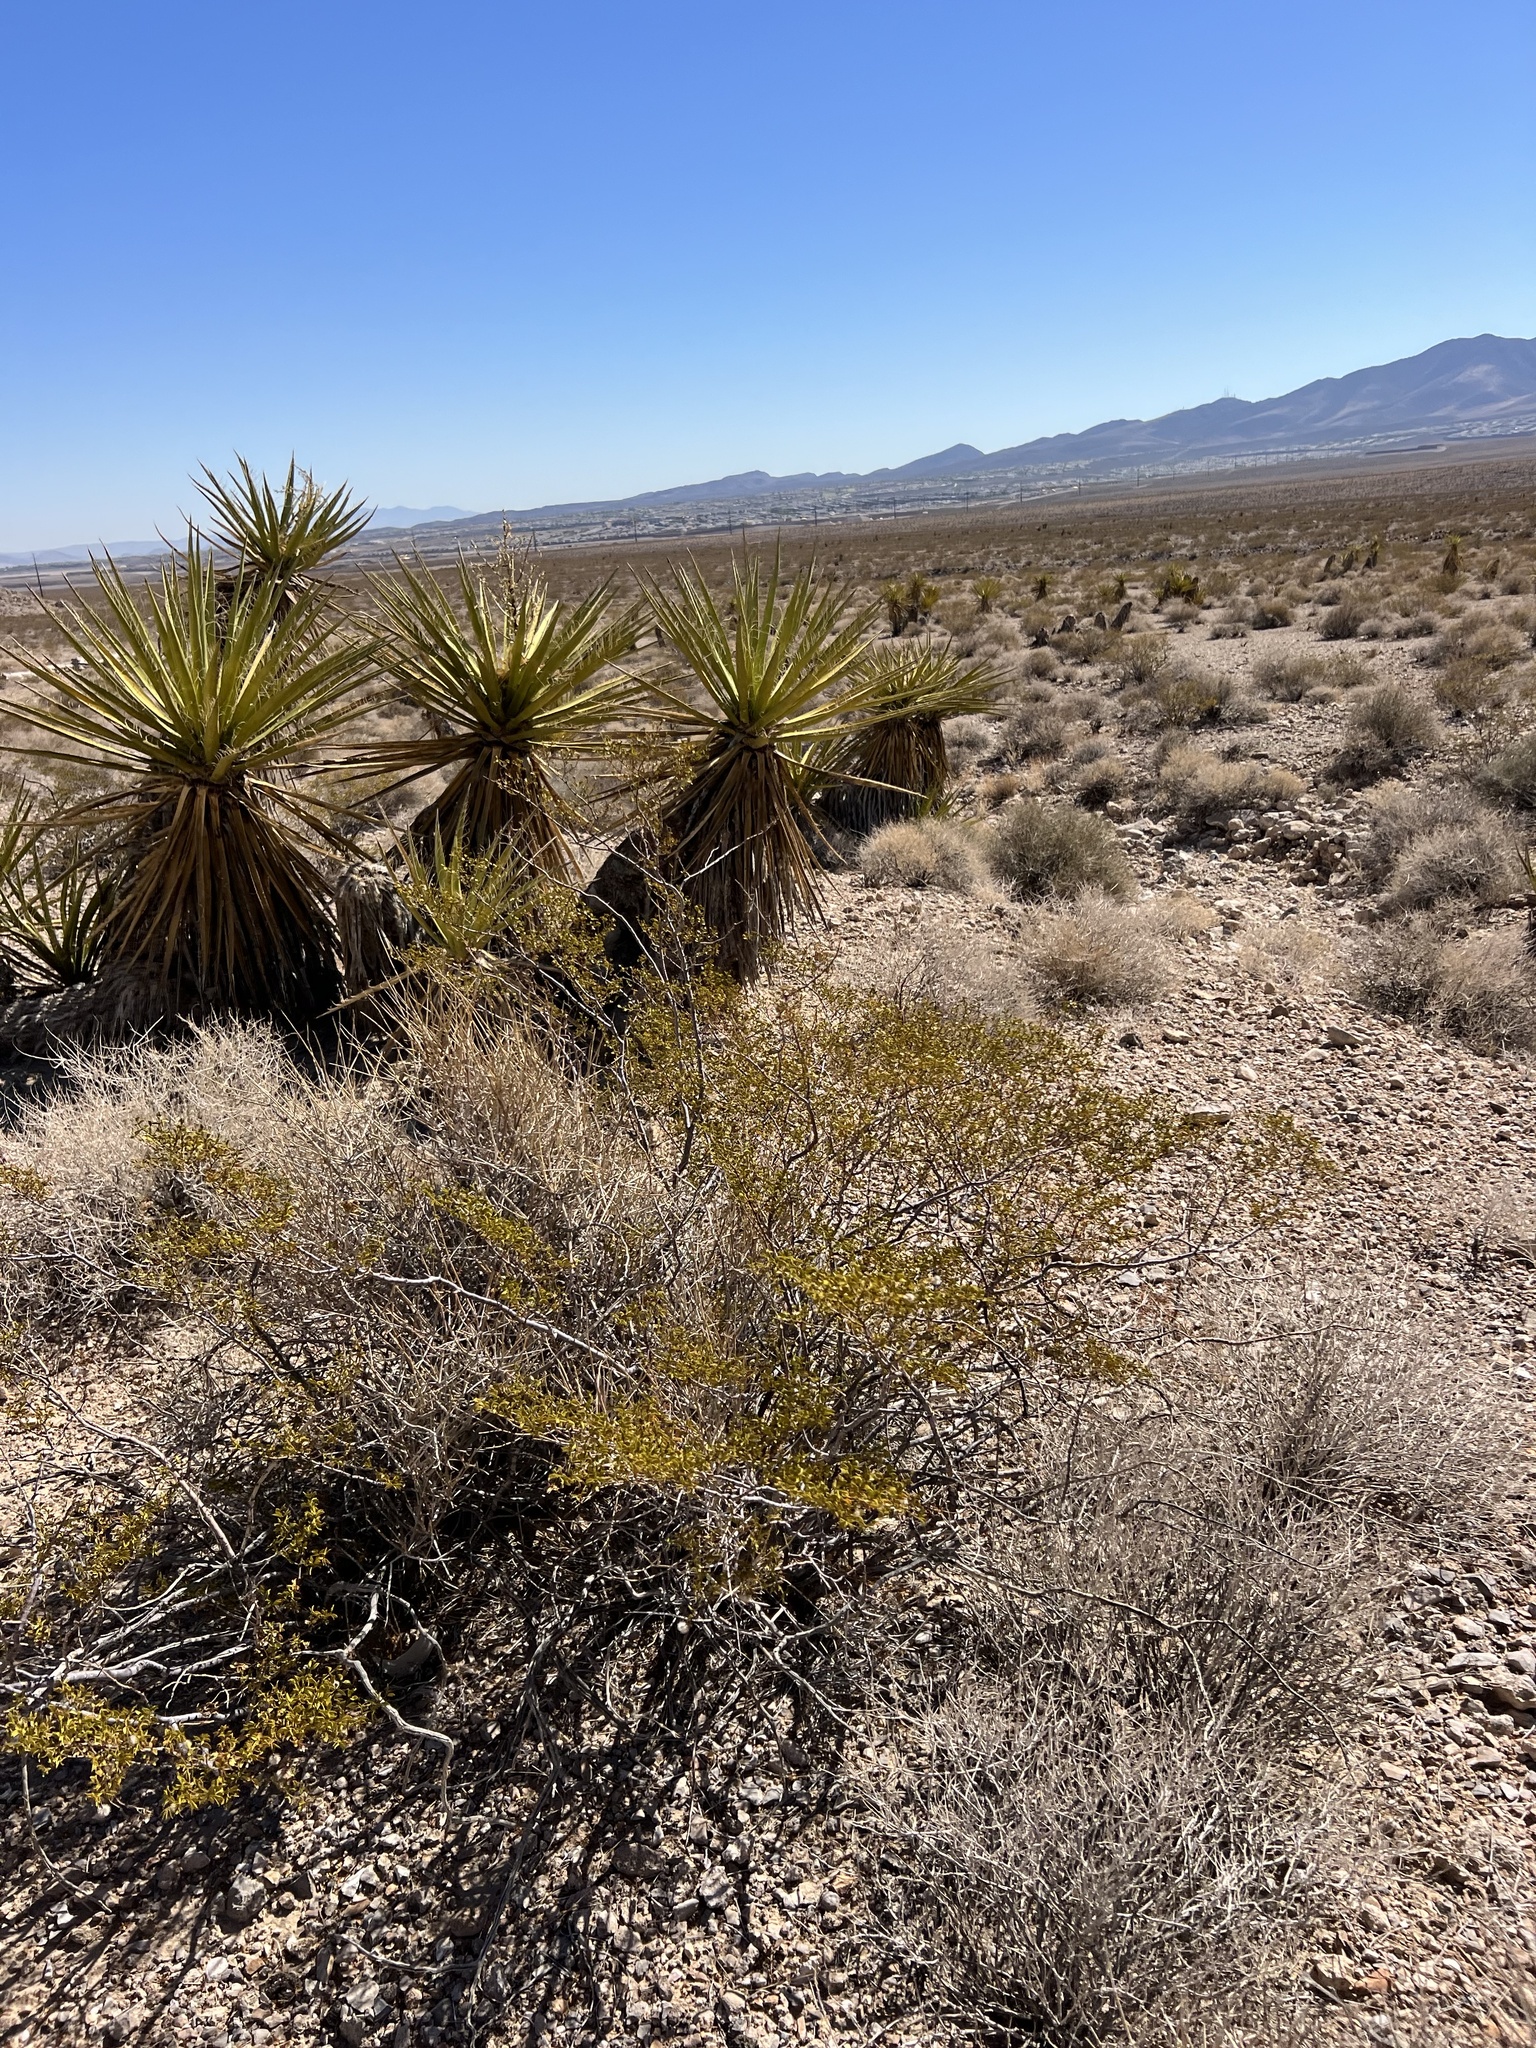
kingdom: Plantae
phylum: Tracheophyta
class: Magnoliopsida
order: Zygophyllales
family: Zygophyllaceae
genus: Larrea
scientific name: Larrea tridentata
